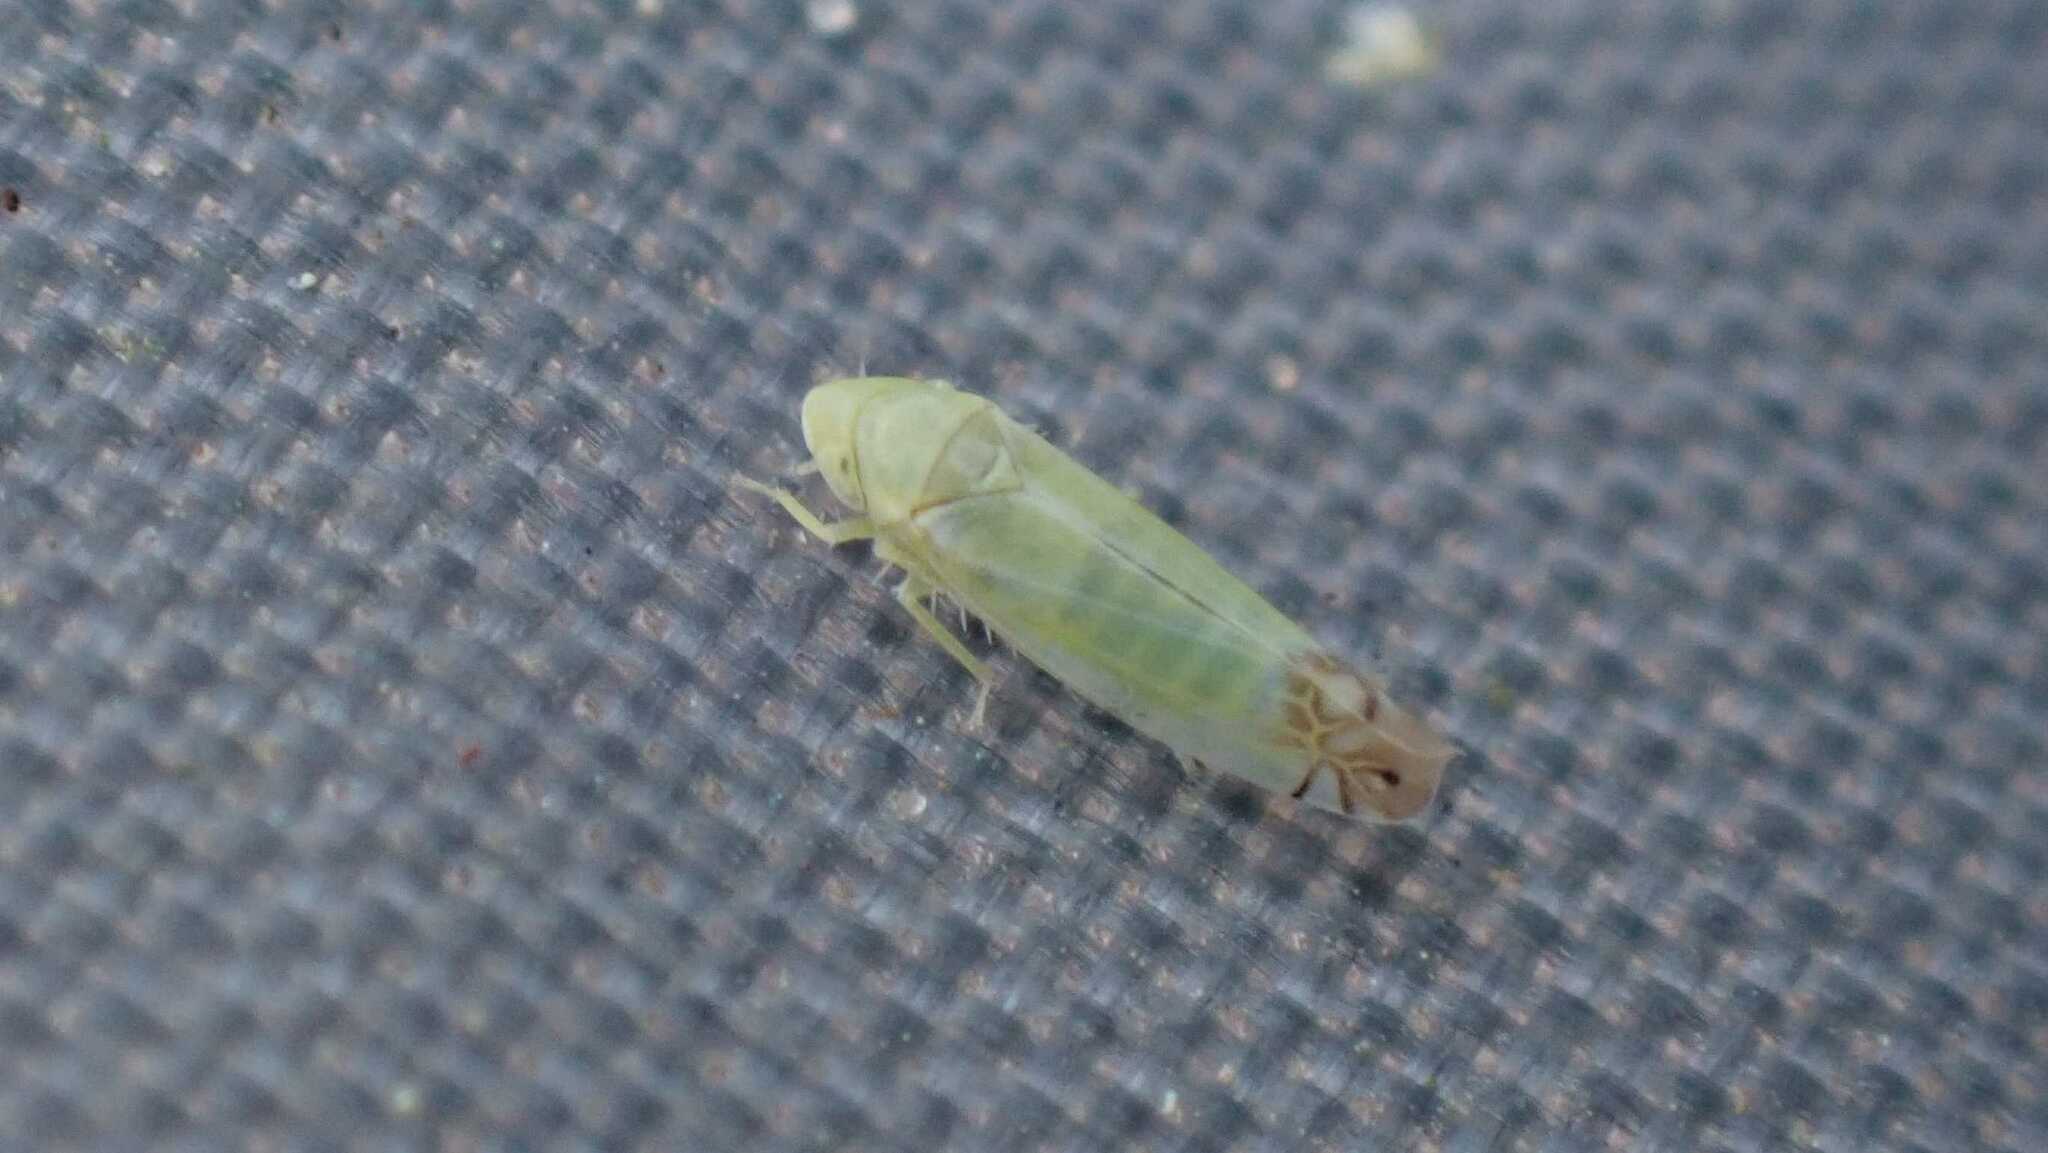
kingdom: Animalia
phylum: Arthropoda
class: Insecta
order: Hemiptera
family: Cicadellidae
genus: Zyginella
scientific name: Zyginella pulchra
